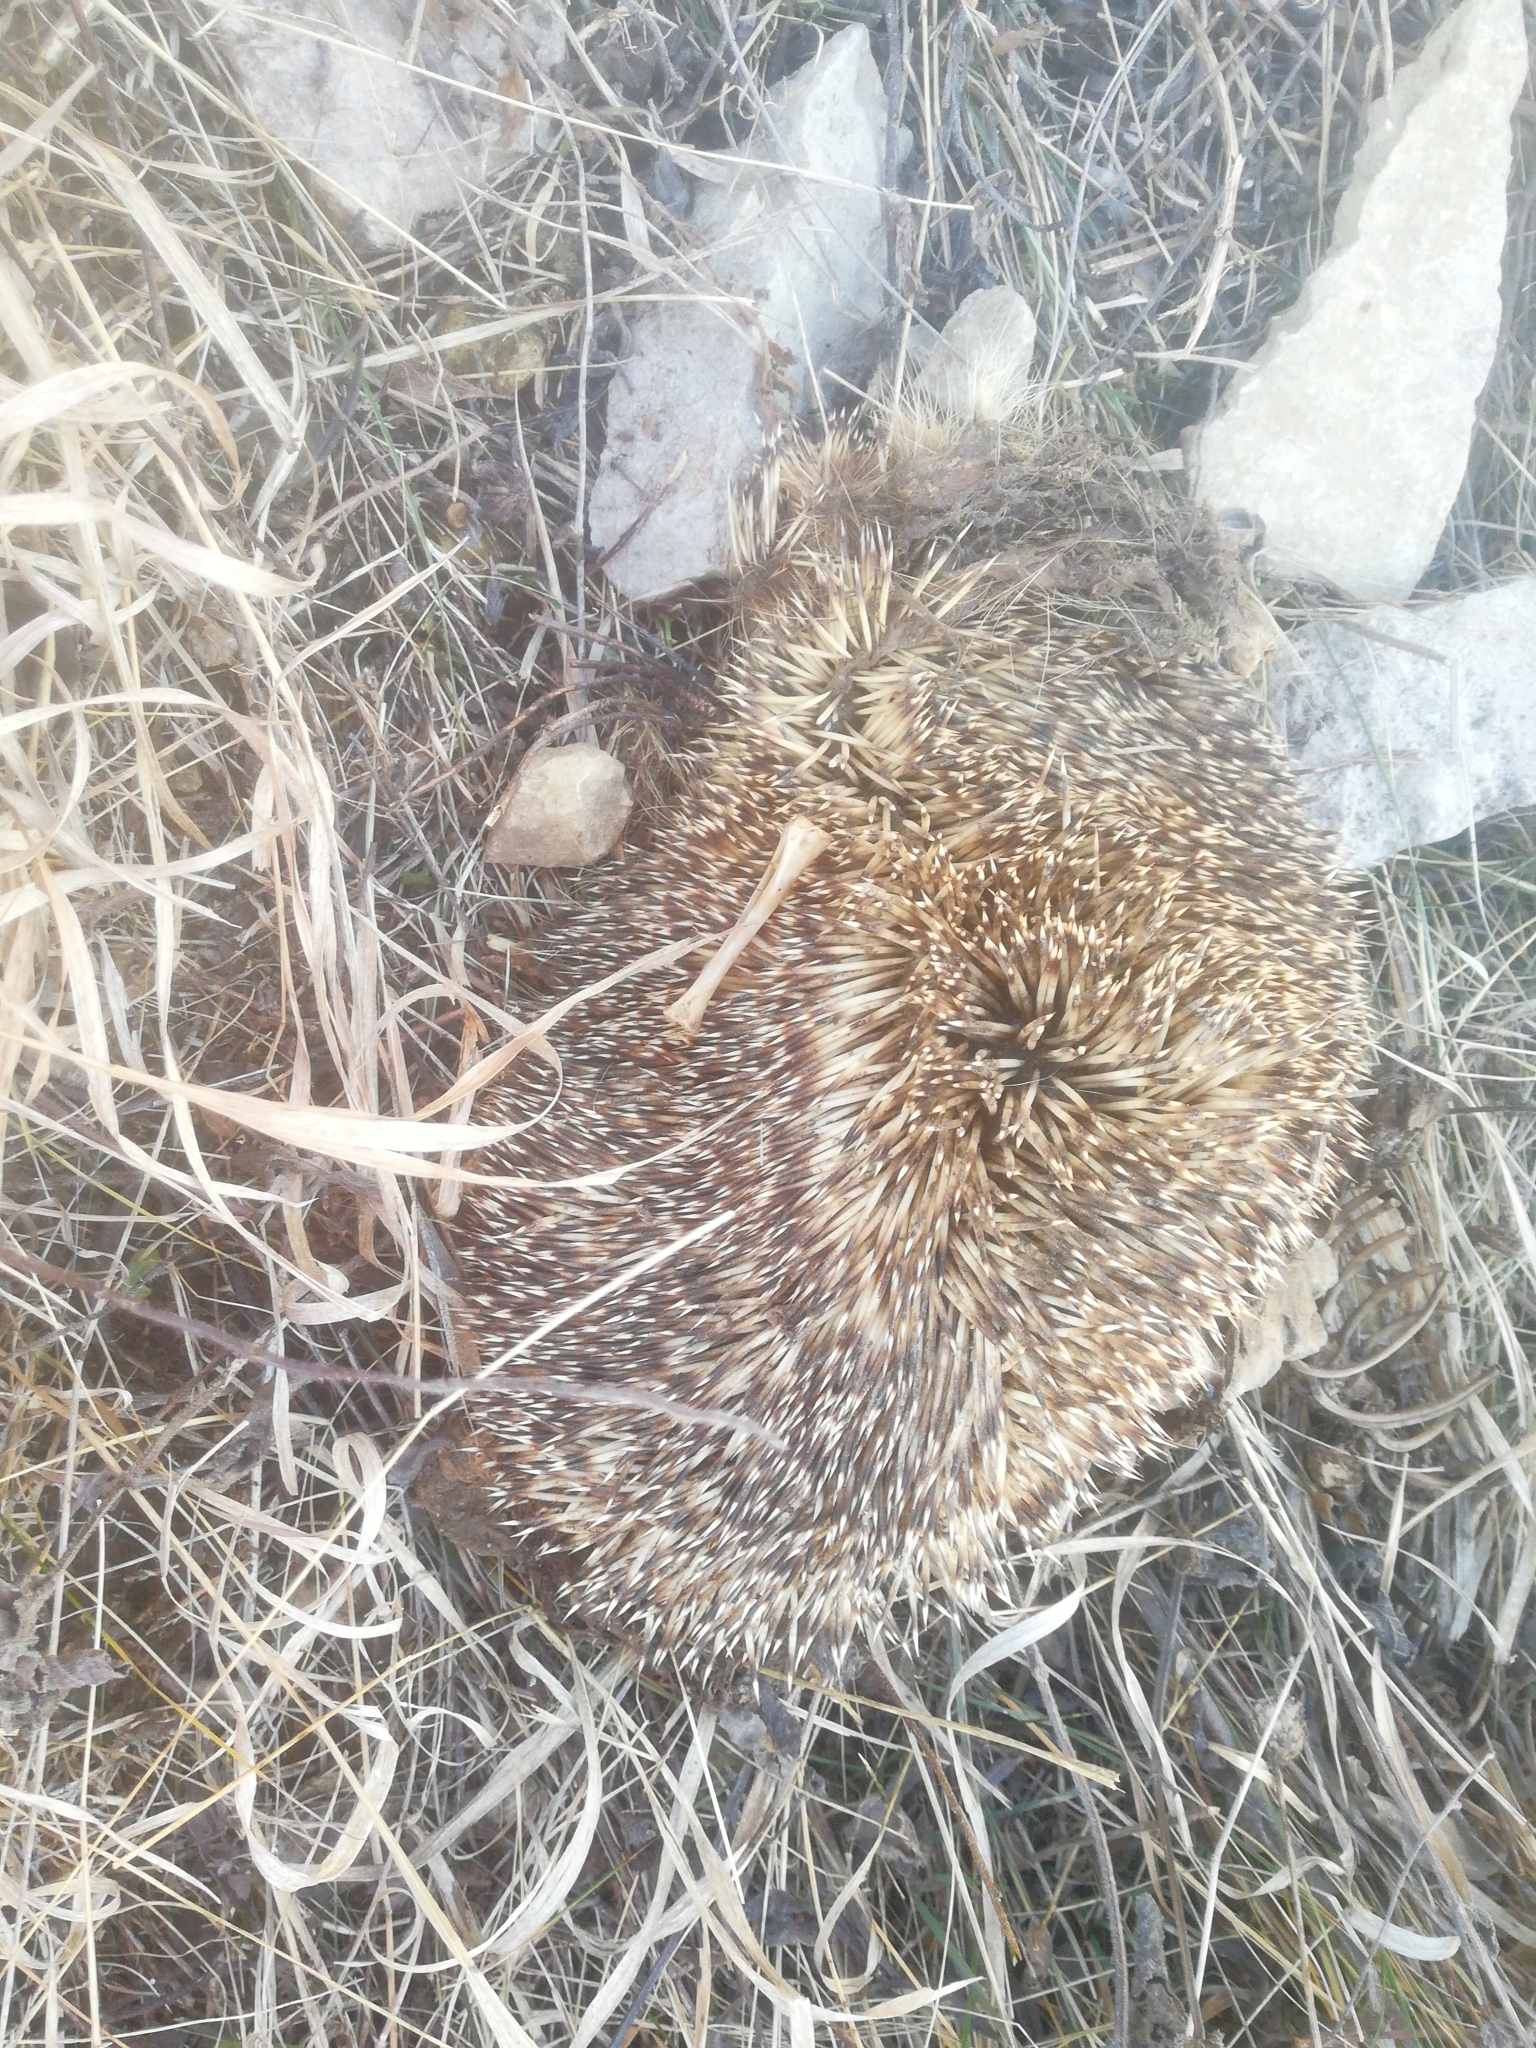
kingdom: Animalia
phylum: Chordata
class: Mammalia
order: Erinaceomorpha
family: Erinaceidae
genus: Erinaceus
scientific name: Erinaceus roumanicus
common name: Northern white-breasted hedgehog
